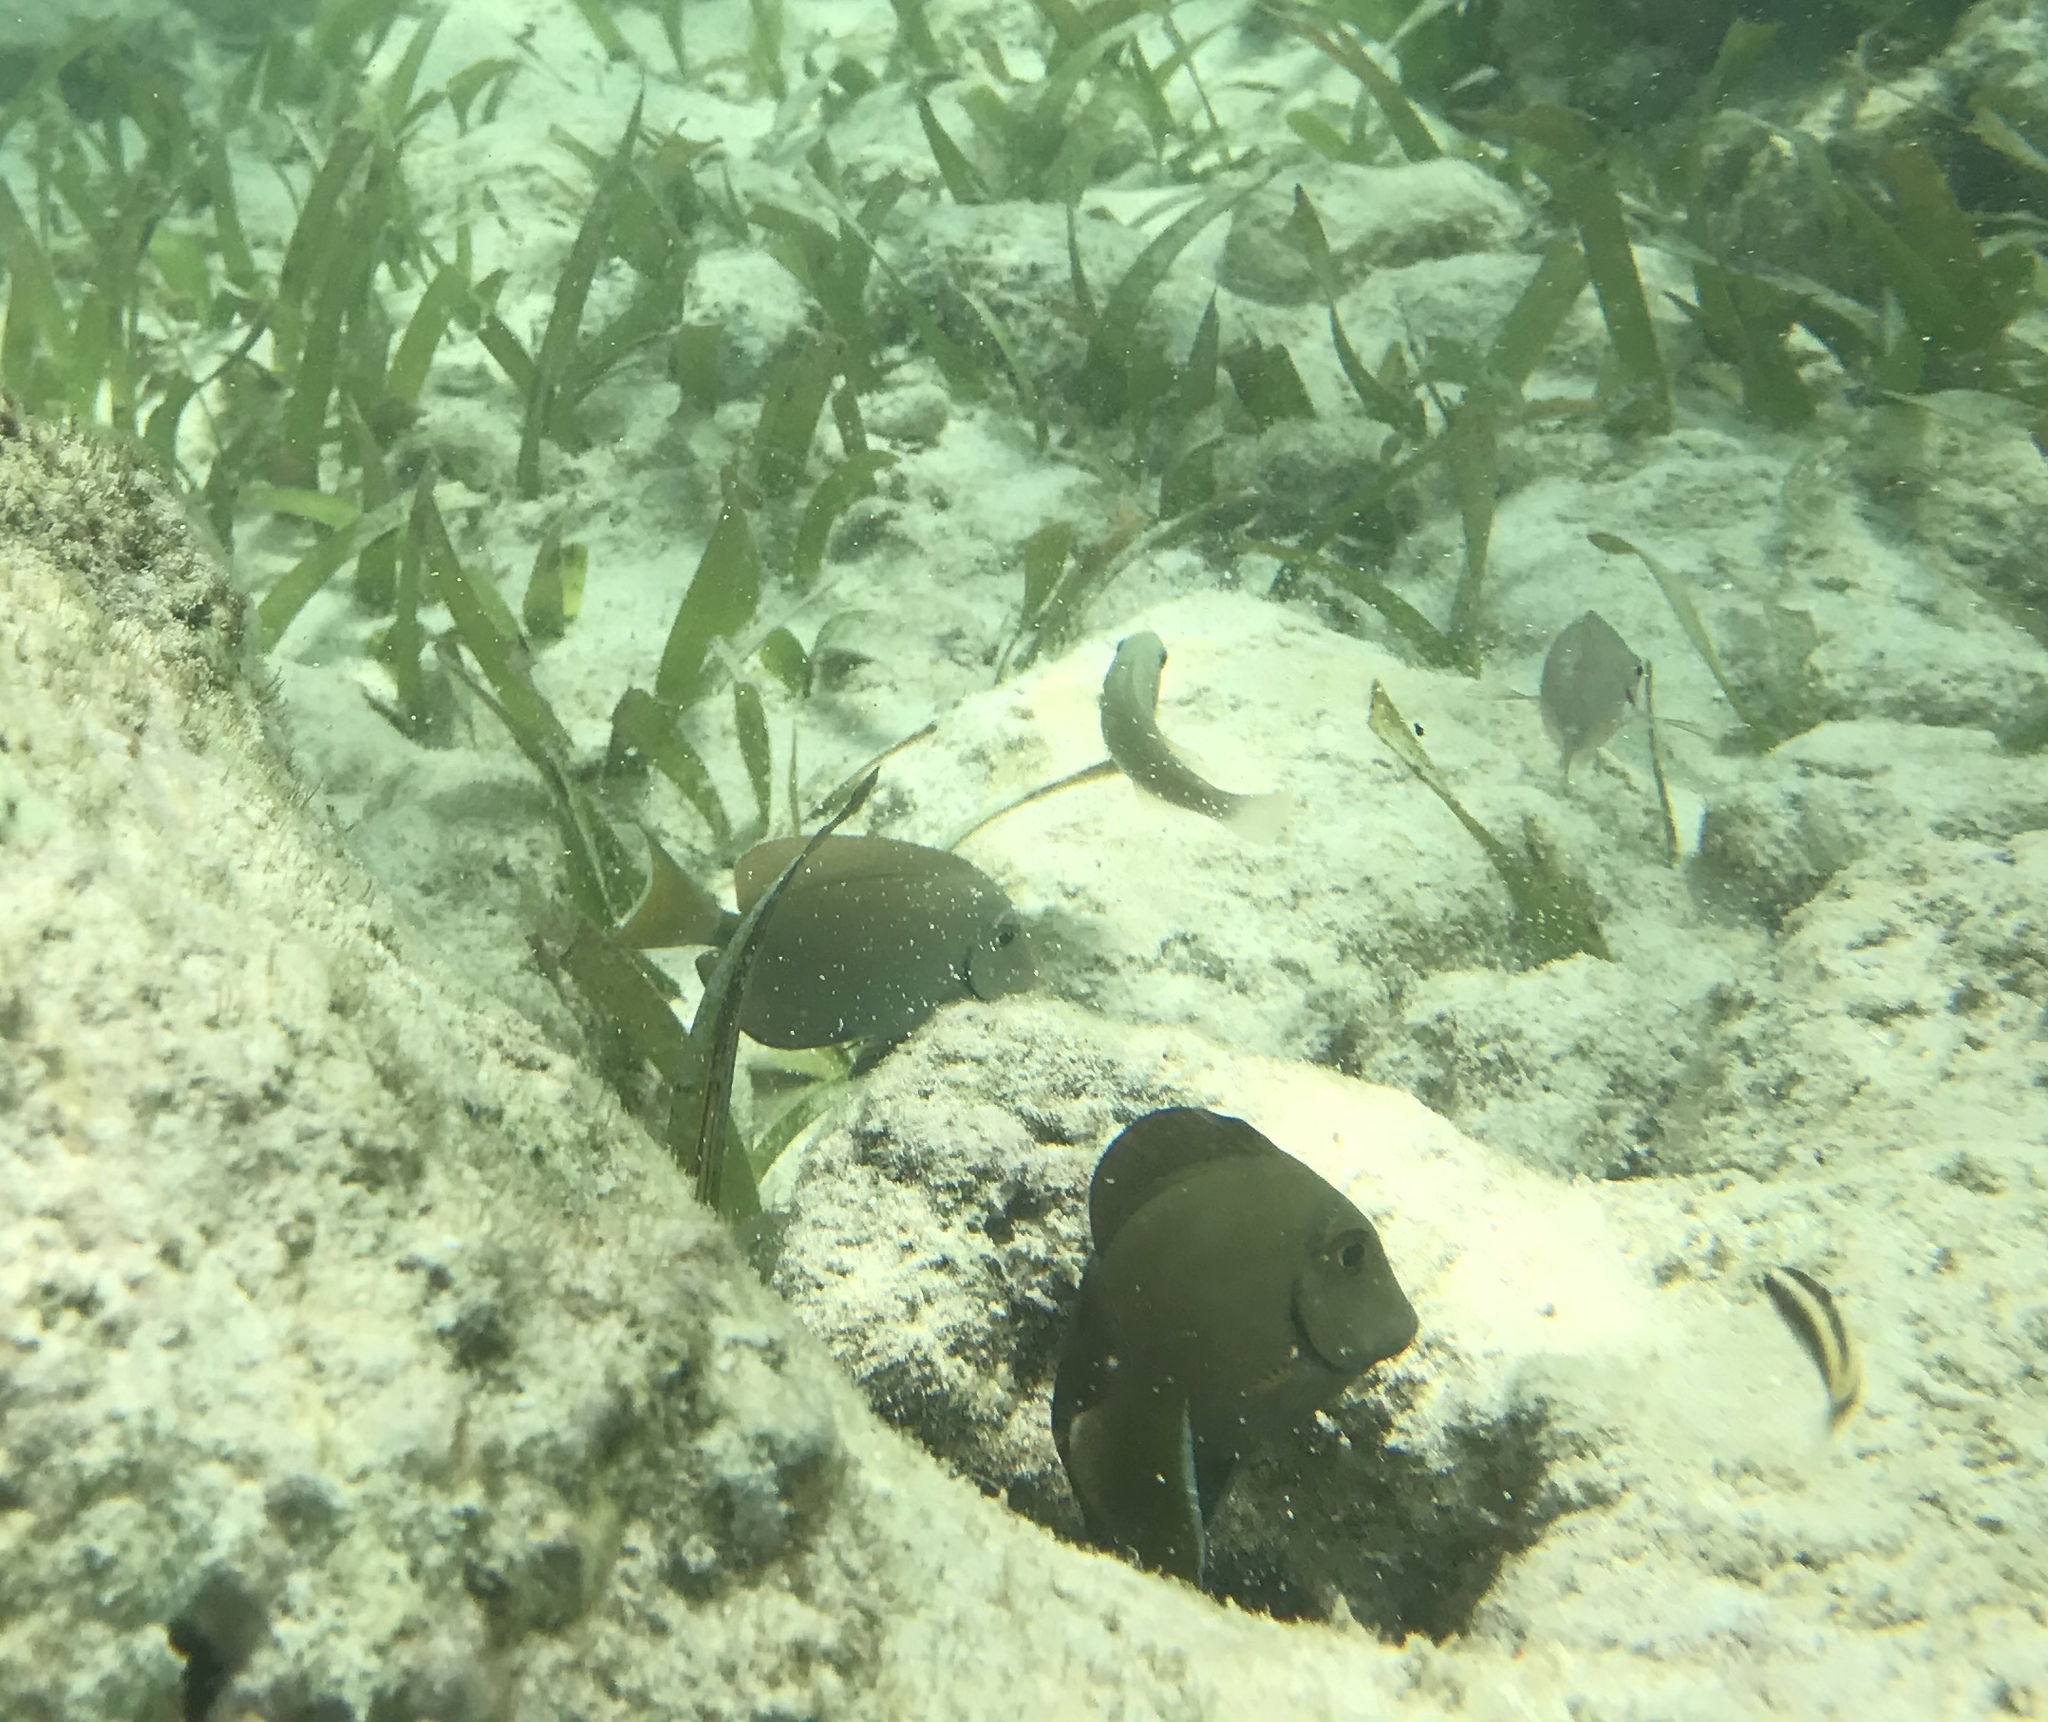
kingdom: Animalia
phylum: Chordata
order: Perciformes
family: Acanthuridae
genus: Acanthurus
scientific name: Acanthurus bahianus
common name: Ocean surgeon
